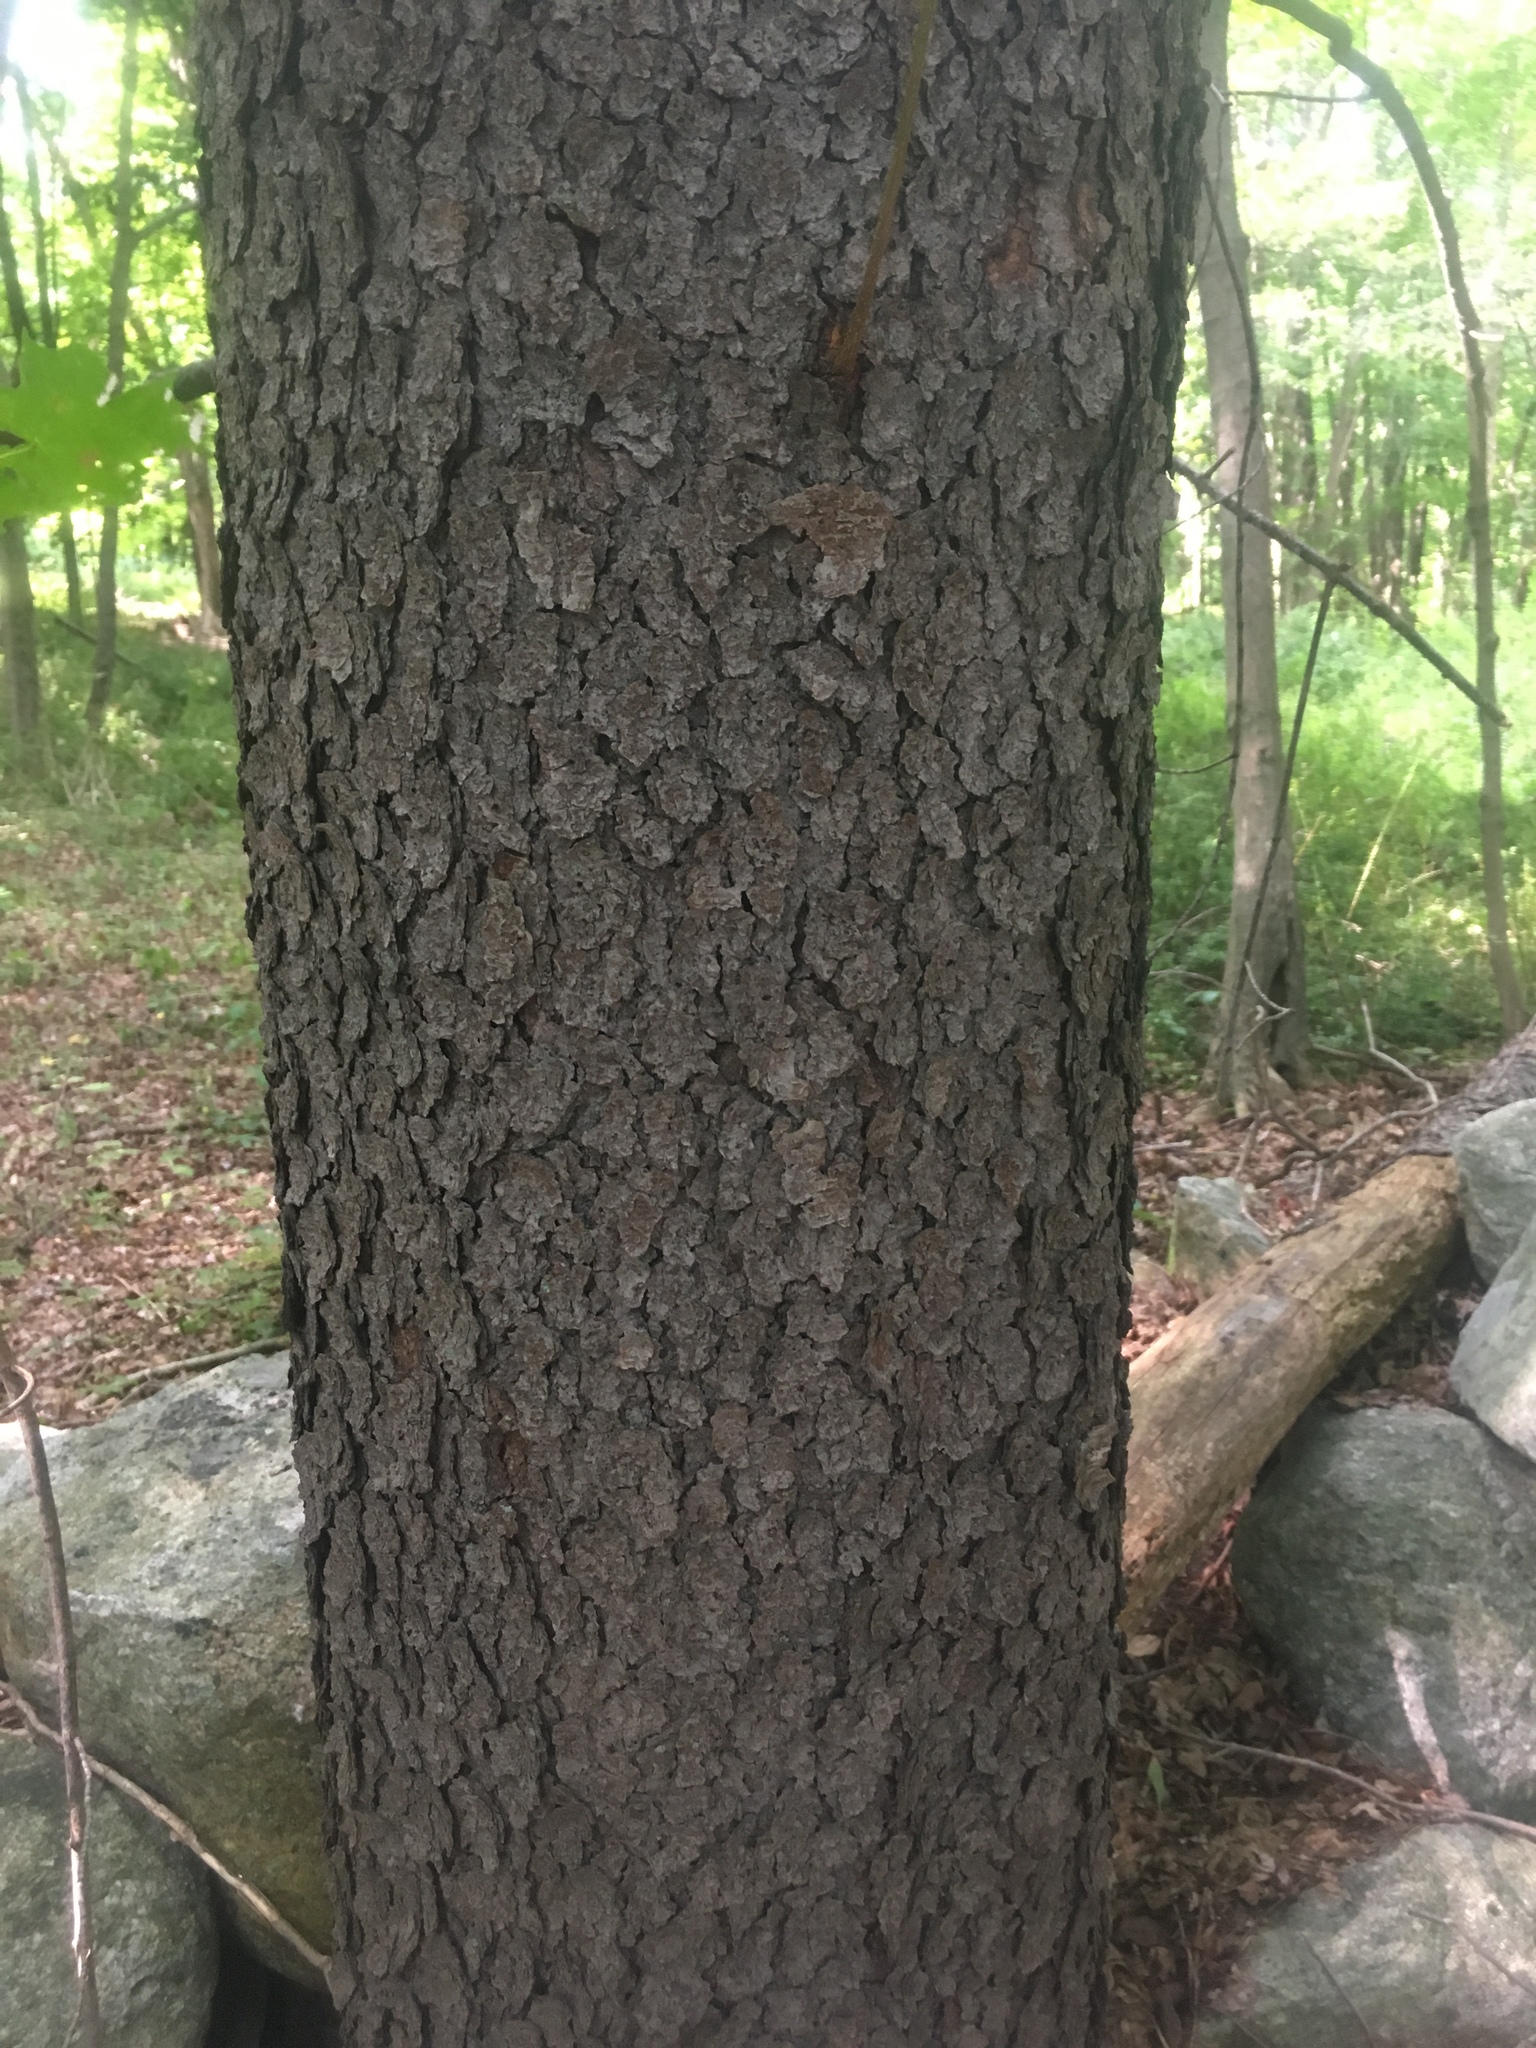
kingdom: Plantae
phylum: Tracheophyta
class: Magnoliopsida
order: Rosales
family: Rosaceae
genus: Prunus
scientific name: Prunus serotina
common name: Black cherry
